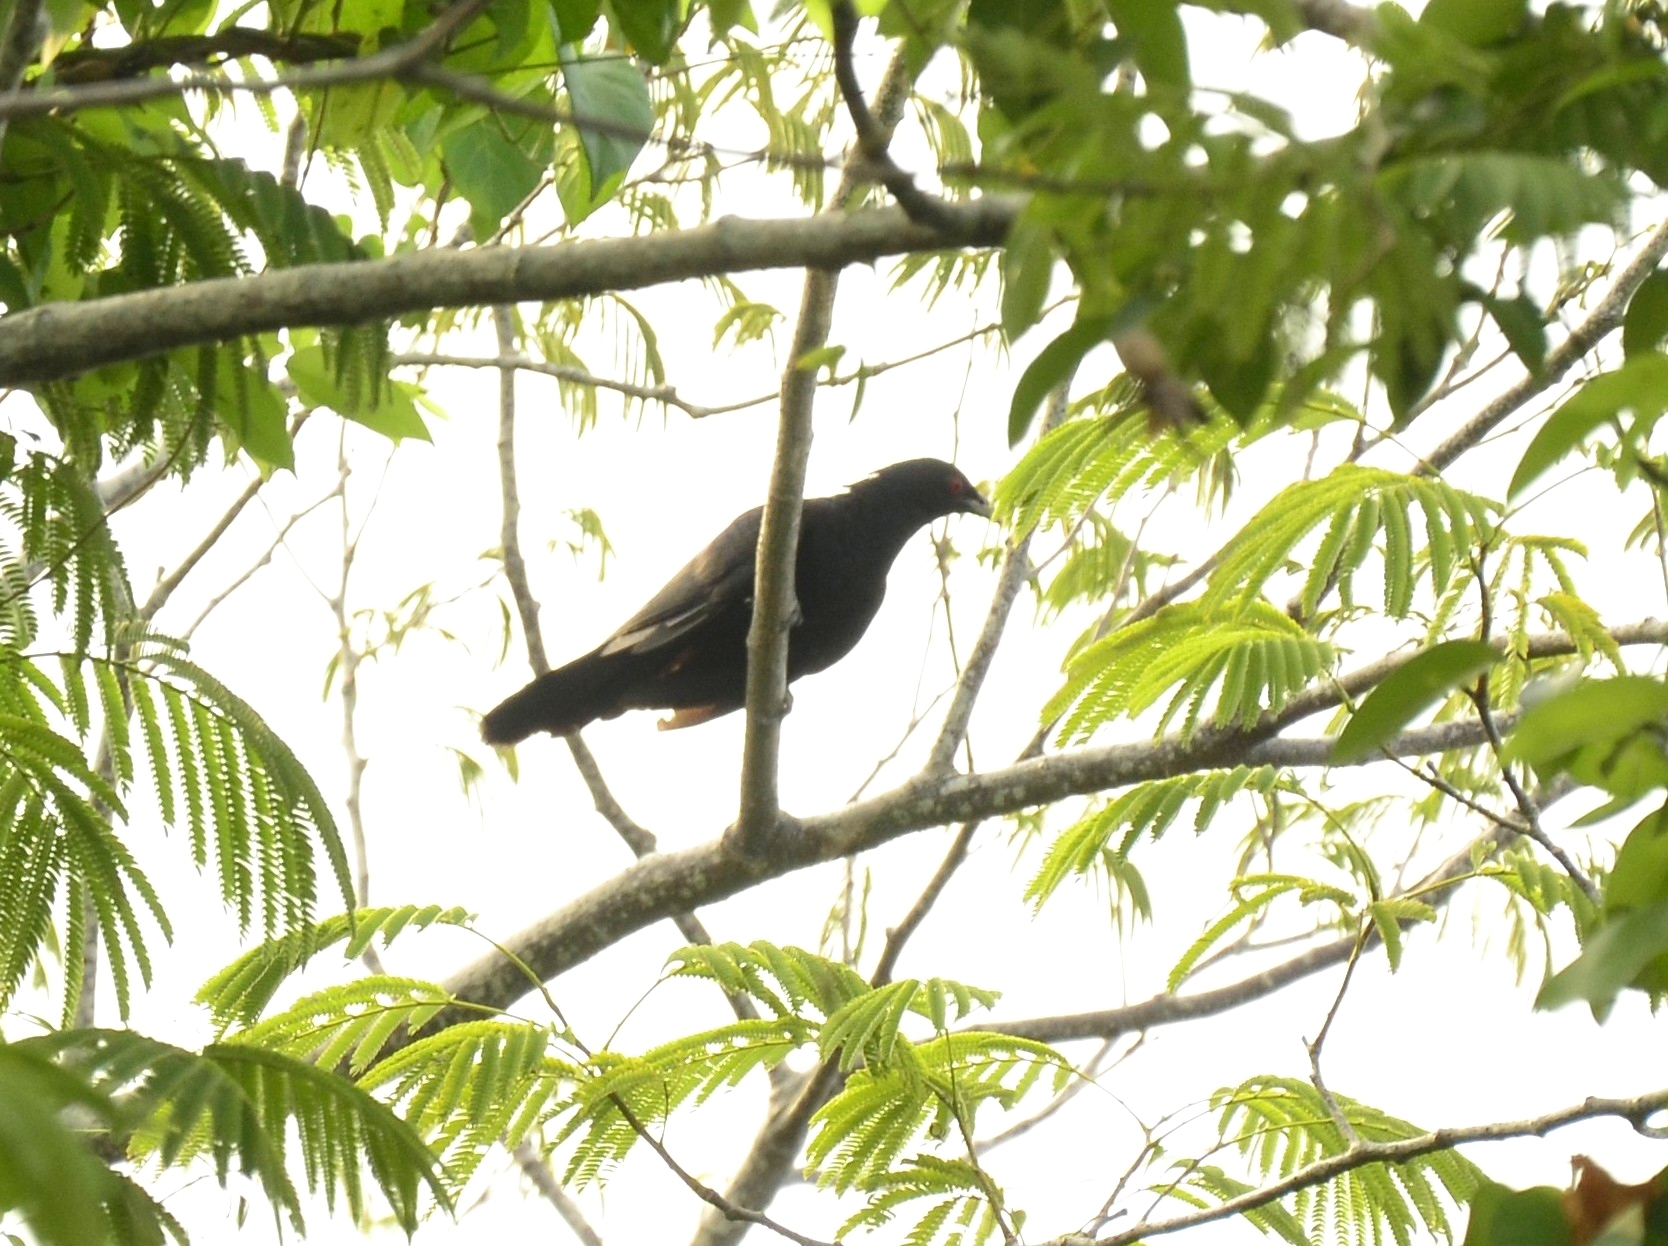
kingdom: Animalia
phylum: Chordata
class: Aves
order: Cuculiformes
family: Cuculidae
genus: Eudynamys
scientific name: Eudynamys scolopaceus
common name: Asian koel
